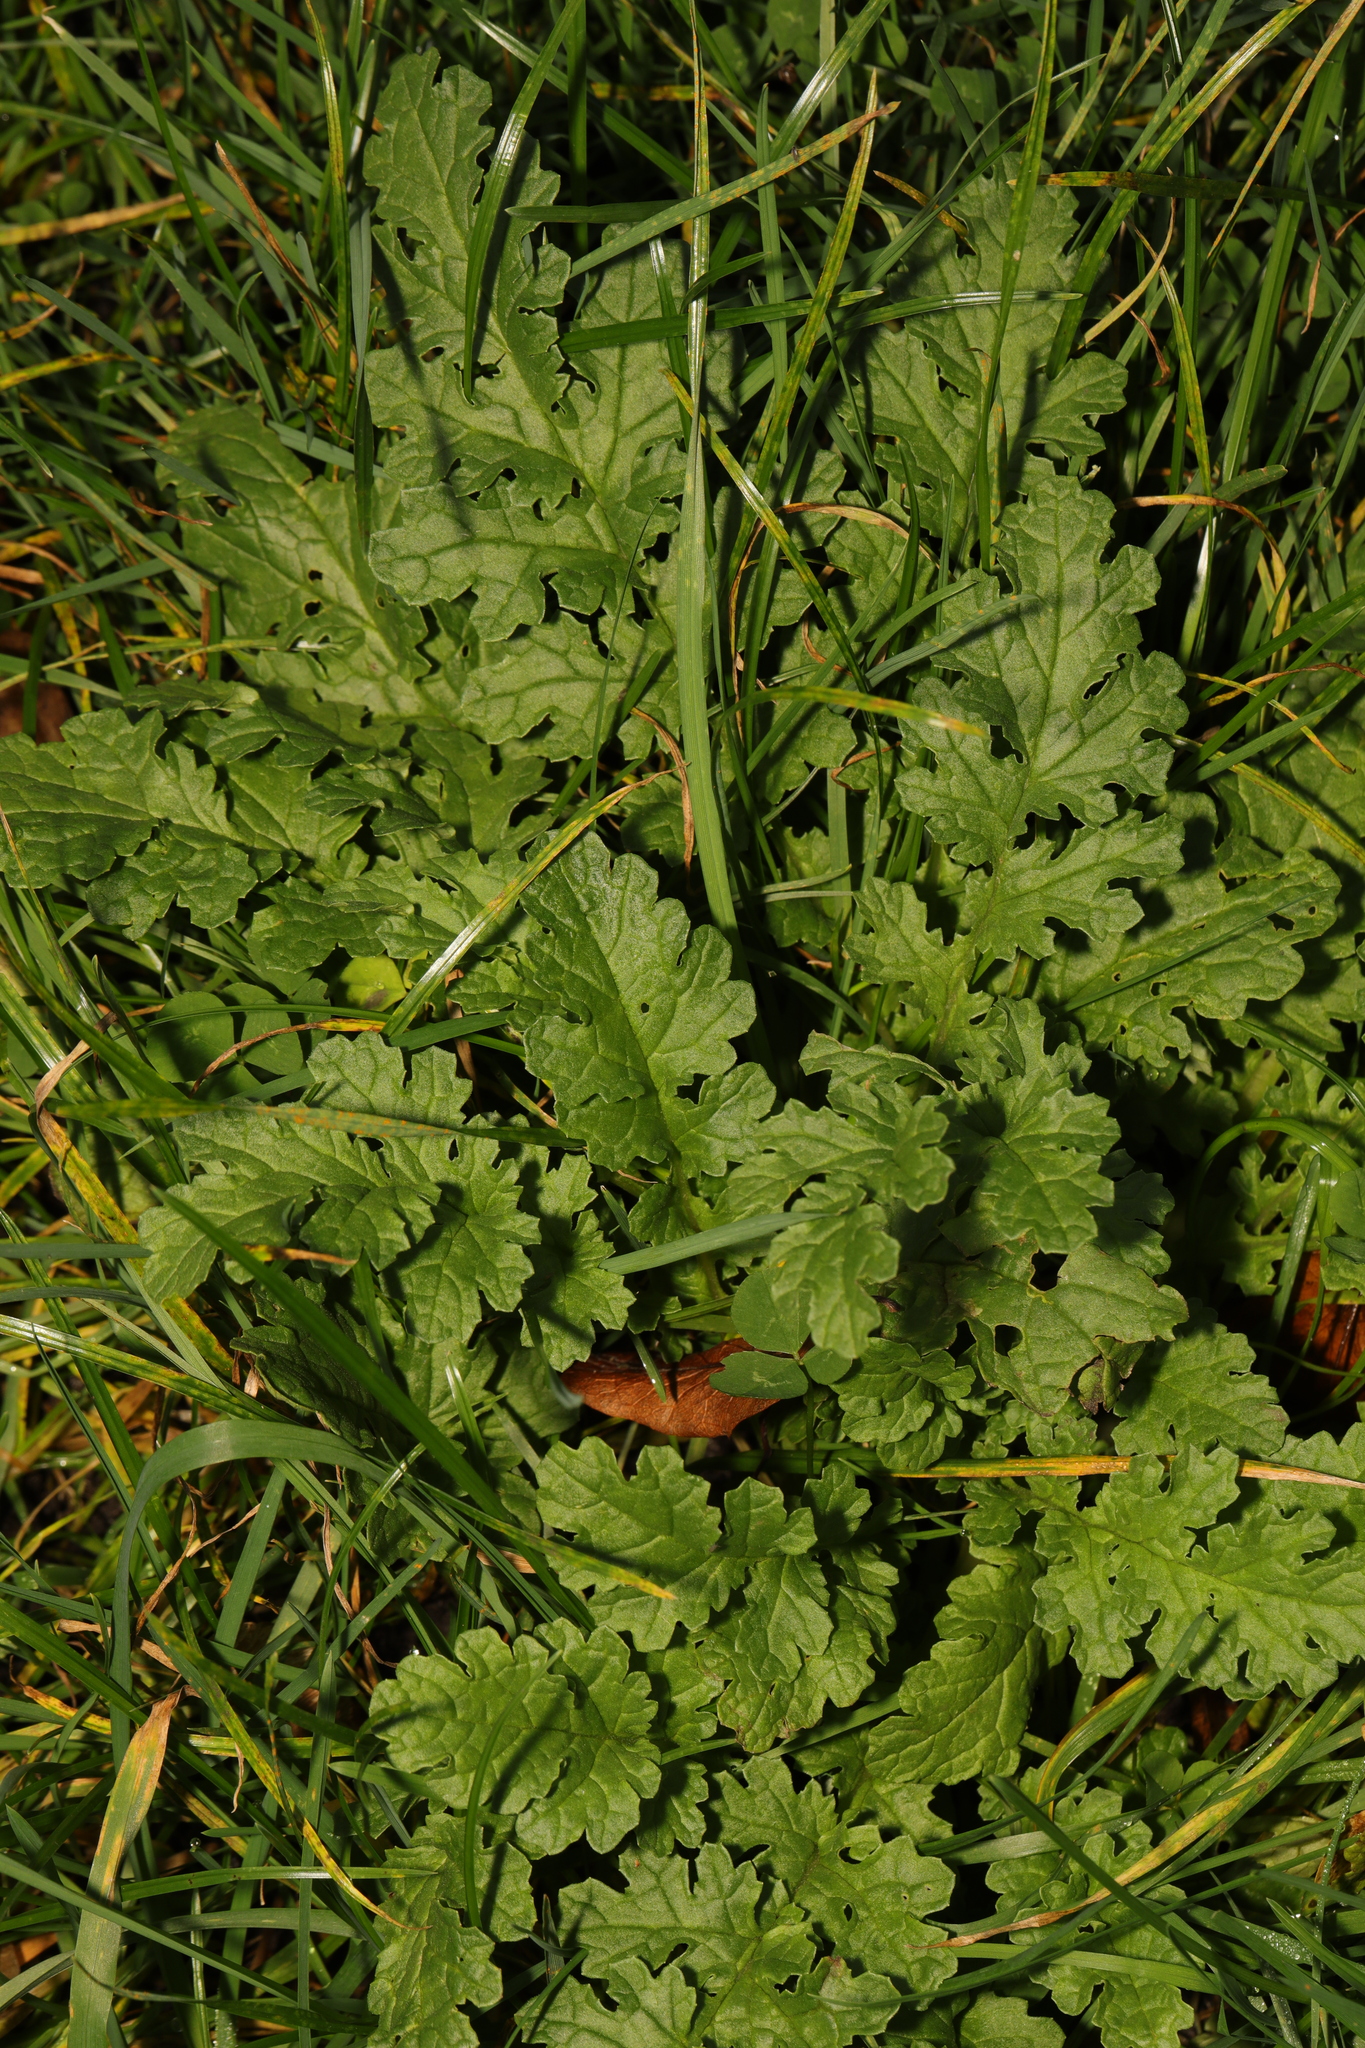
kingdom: Plantae
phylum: Tracheophyta
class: Magnoliopsida
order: Asterales
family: Asteraceae
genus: Jacobaea
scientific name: Jacobaea vulgaris
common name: Stinking willie
